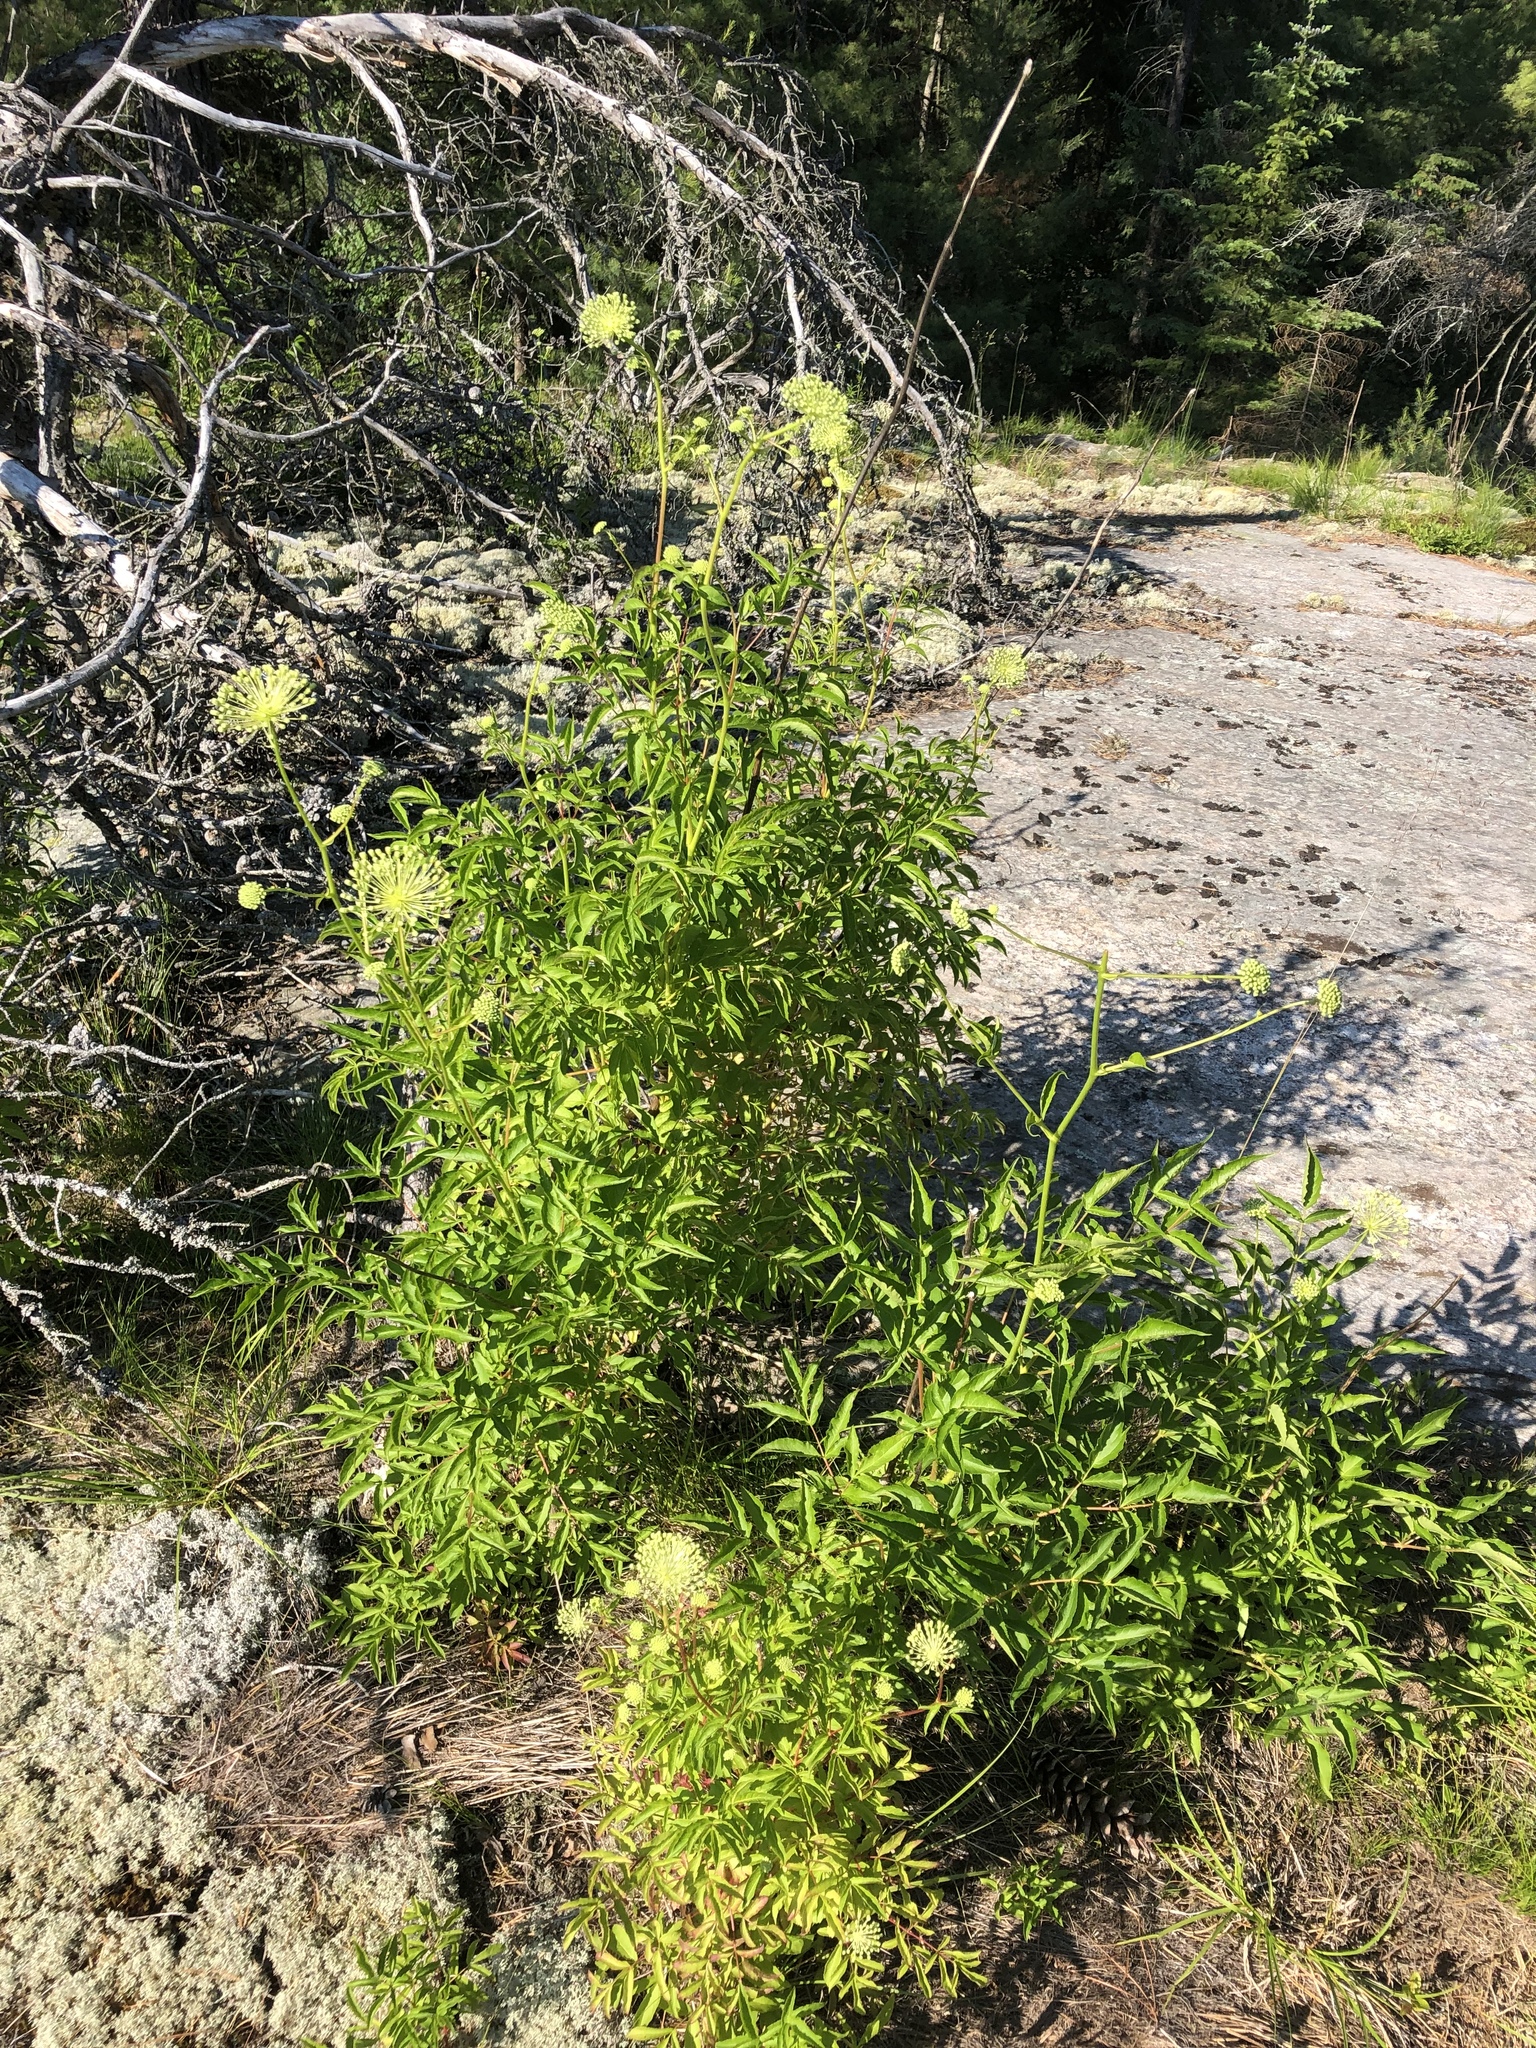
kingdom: Plantae
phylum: Tracheophyta
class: Magnoliopsida
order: Apiales
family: Araliaceae
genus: Aralia
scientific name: Aralia hispida
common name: Bristly sarsaparilla
